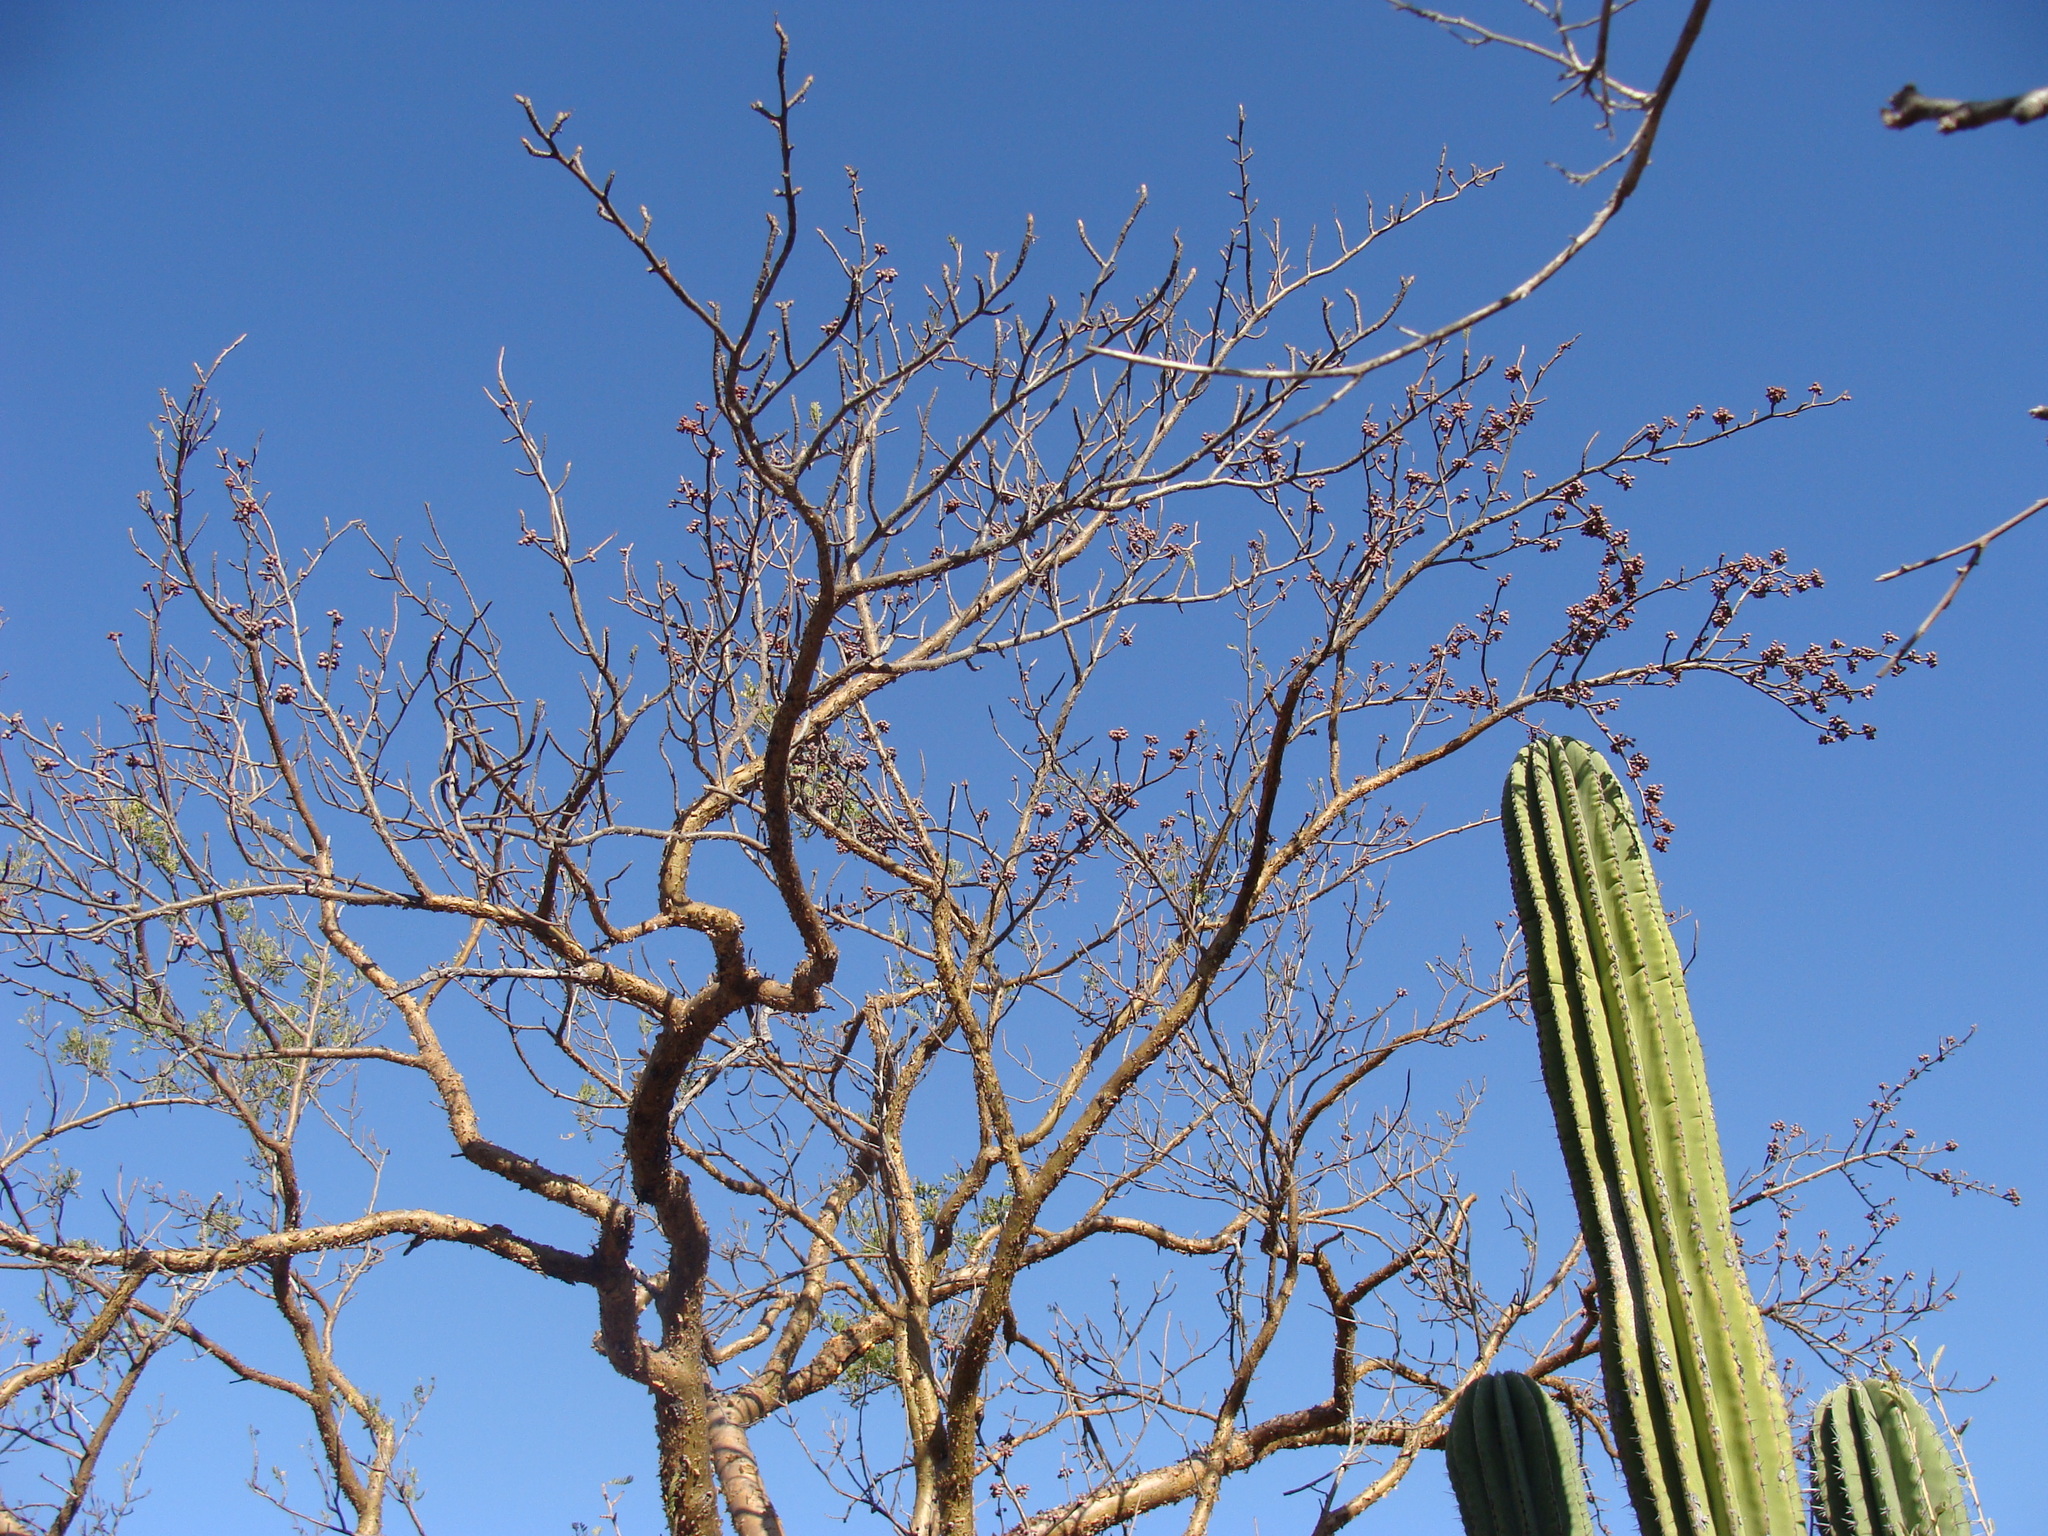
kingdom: Plantae
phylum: Tracheophyta
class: Magnoliopsida
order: Sapindales
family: Burseraceae
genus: Bursera
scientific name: Bursera microphylla
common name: Elephant tree
